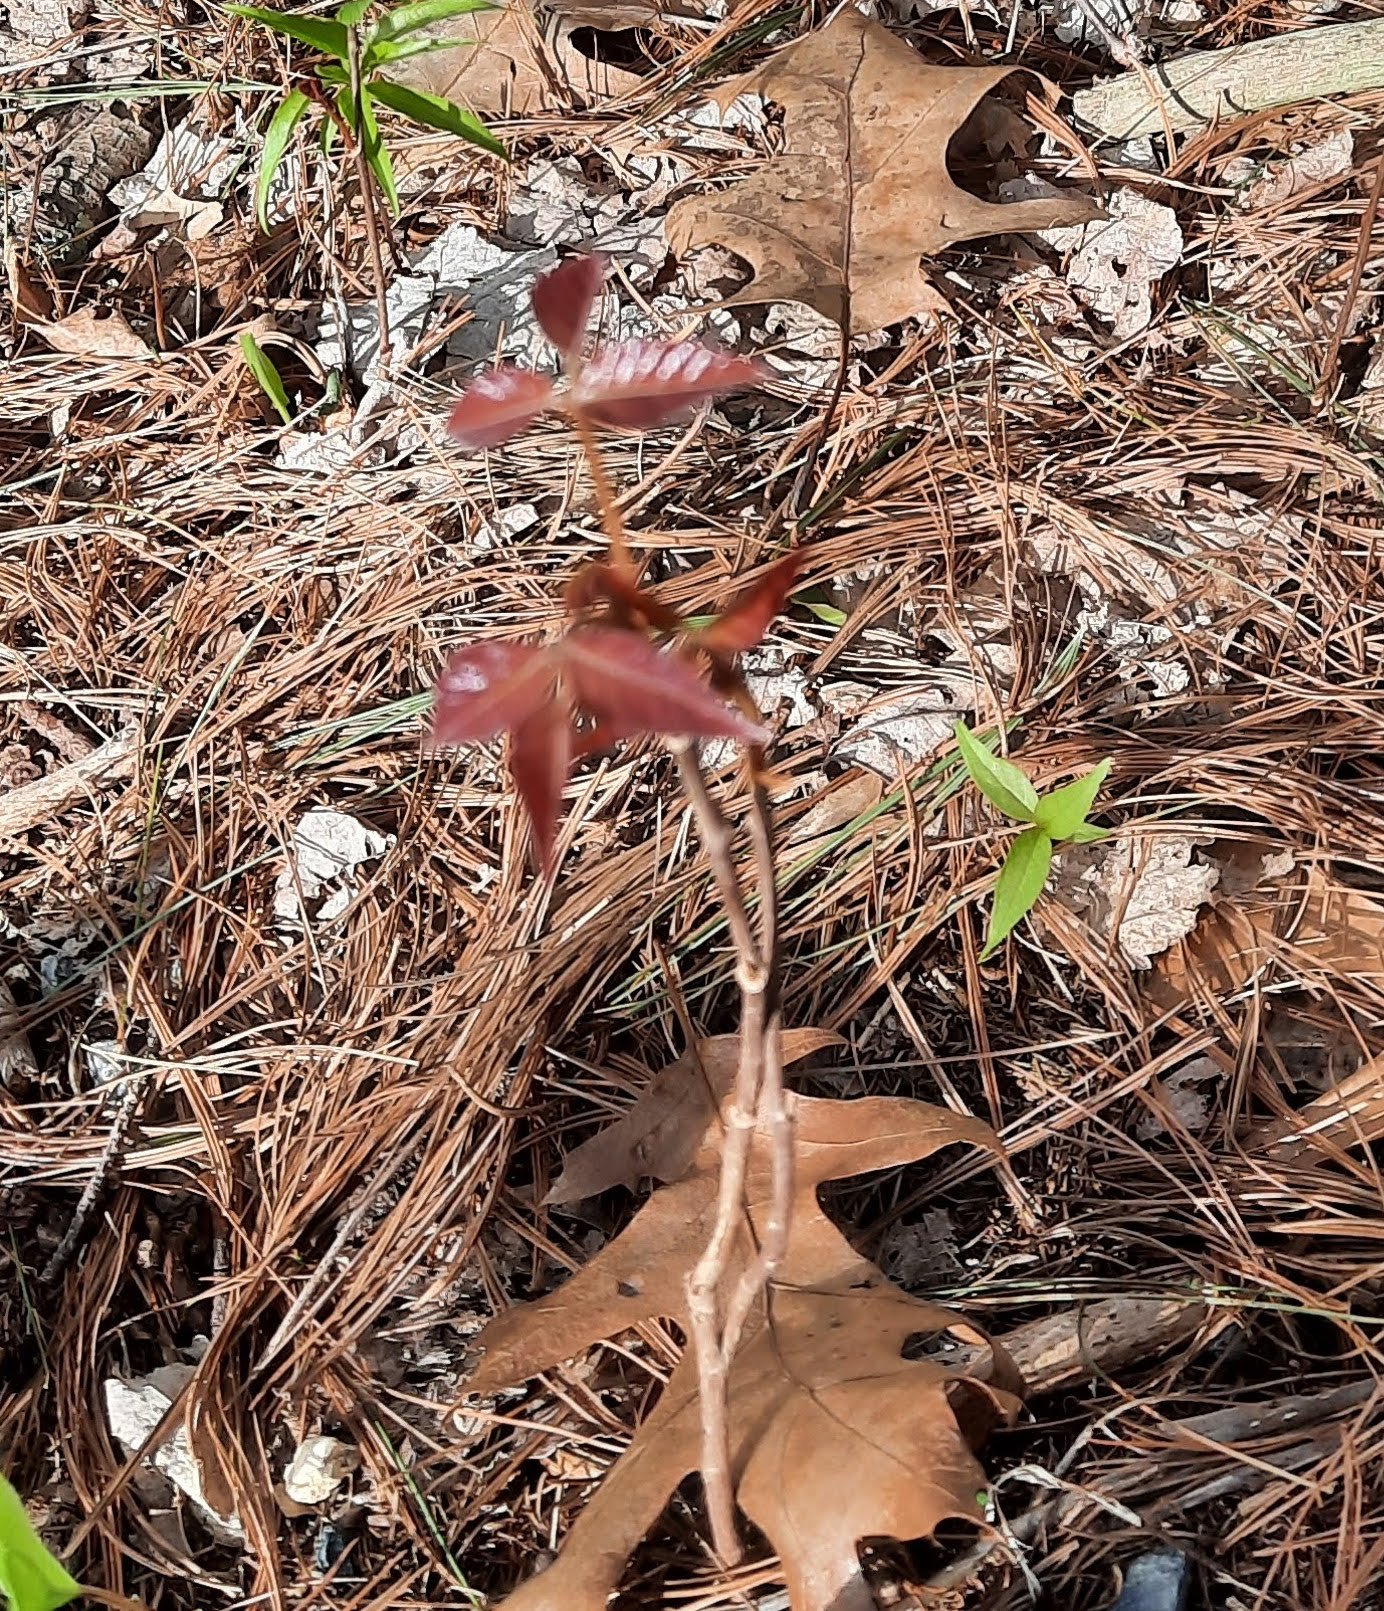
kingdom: Plantae
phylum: Tracheophyta
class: Magnoliopsida
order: Sapindales
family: Anacardiaceae
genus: Toxicodendron
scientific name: Toxicodendron radicans
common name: Poison ivy
